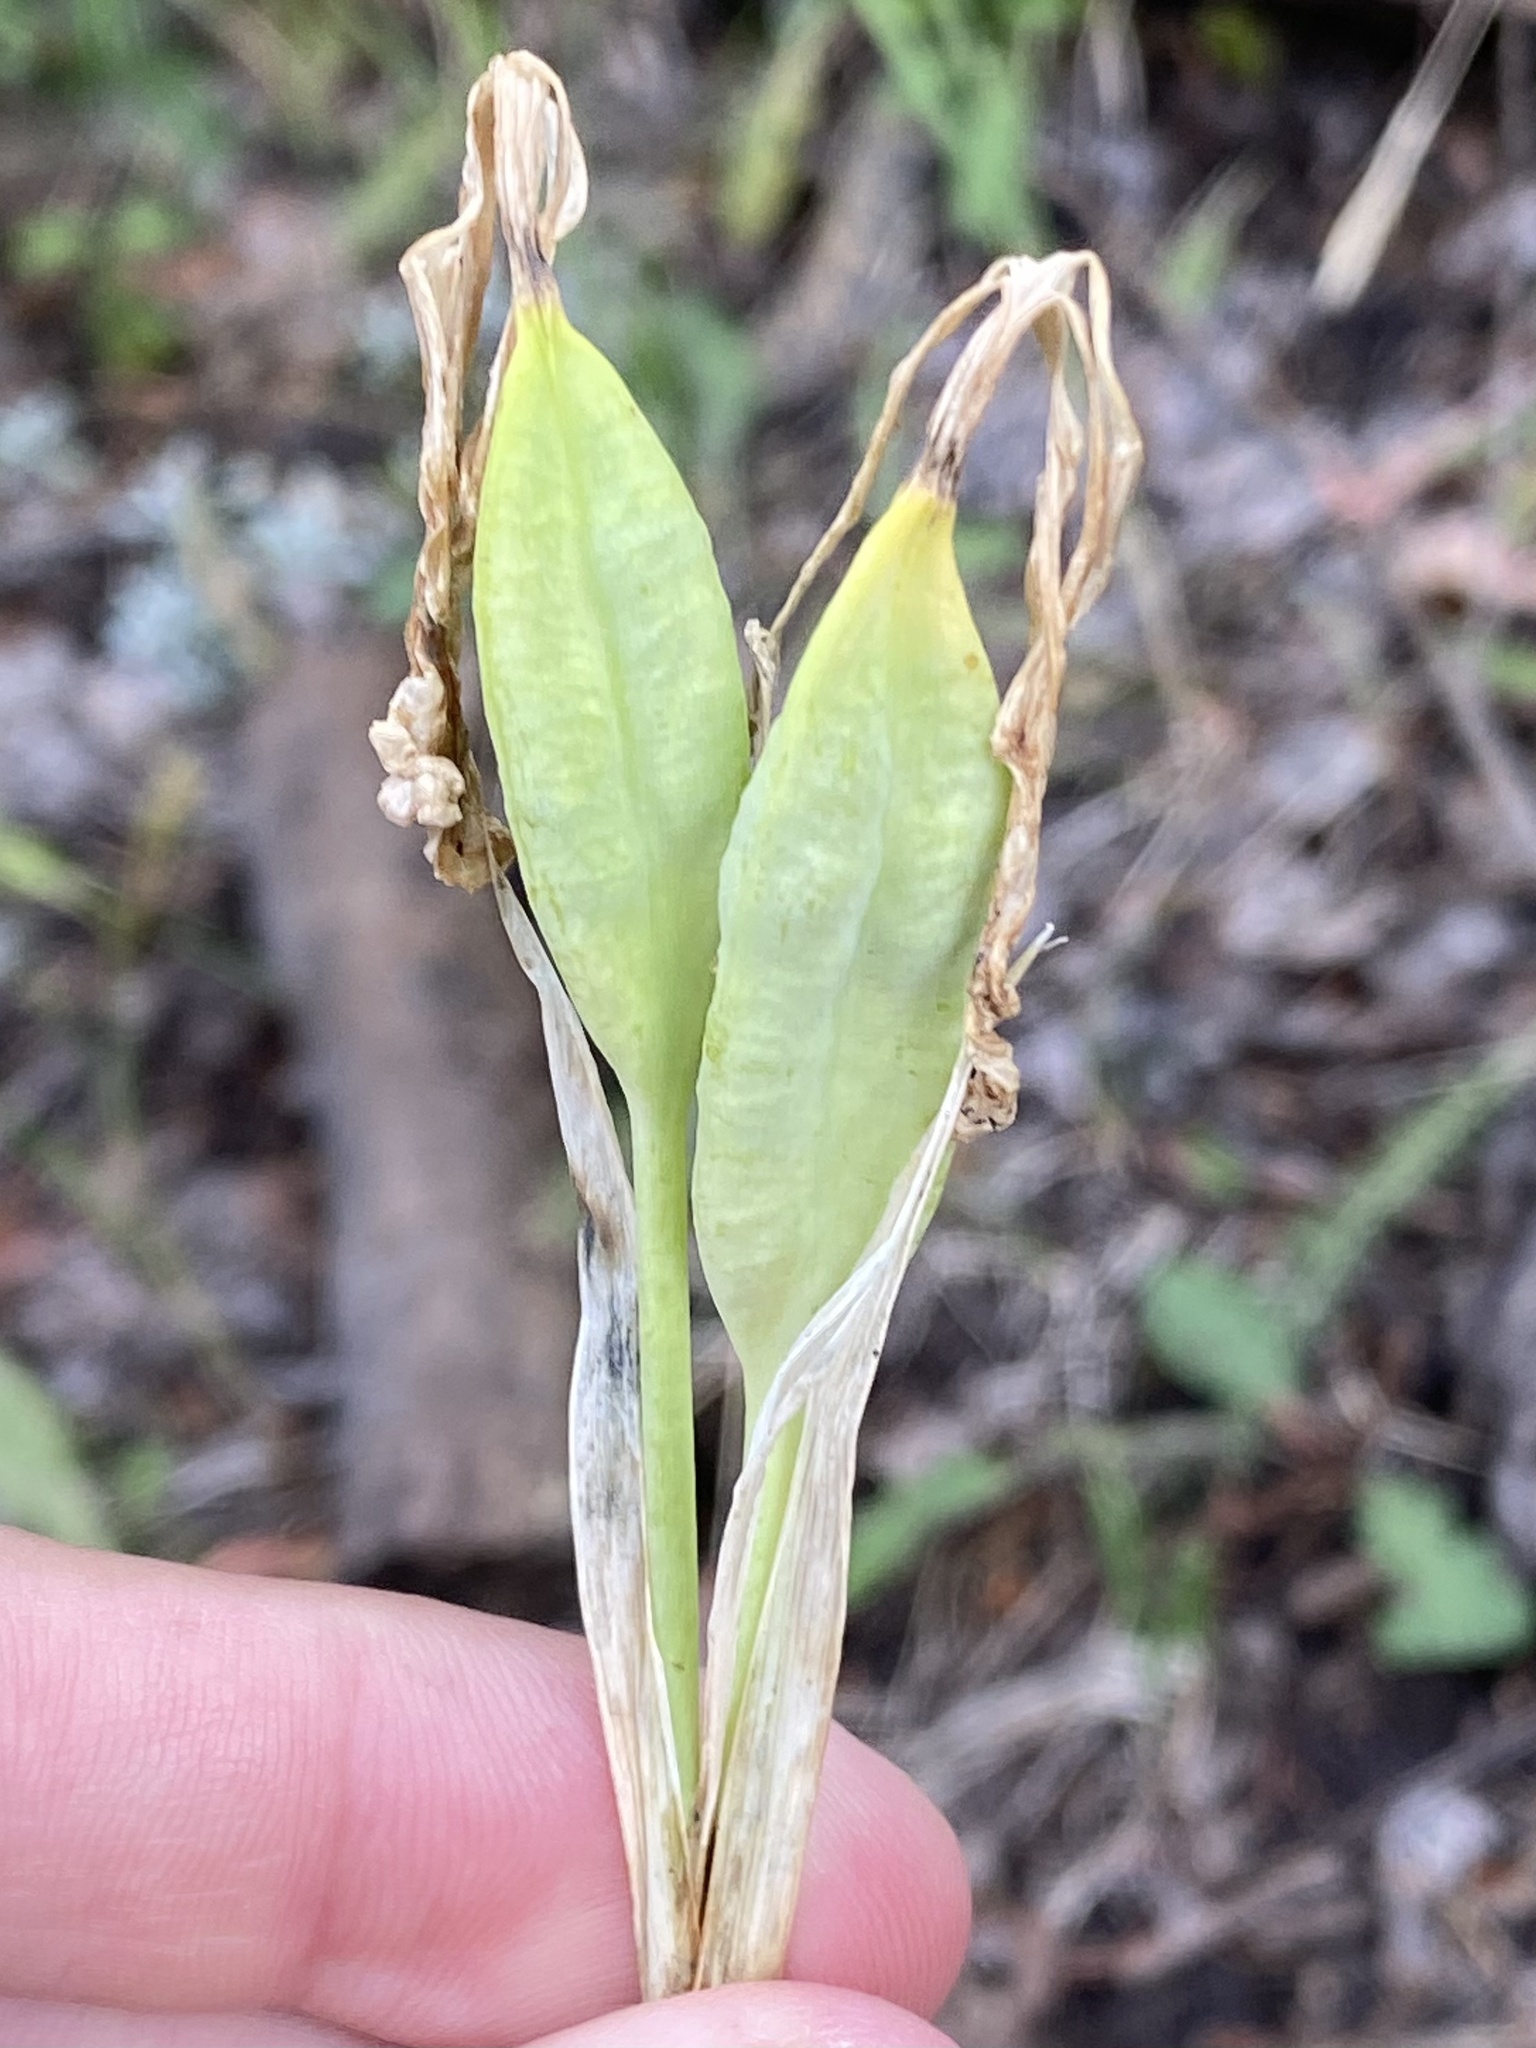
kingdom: Plantae
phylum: Tracheophyta
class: Liliopsida
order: Asparagales
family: Iridaceae
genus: Iris
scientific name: Iris missouriensis
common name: Rocky mountain iris
